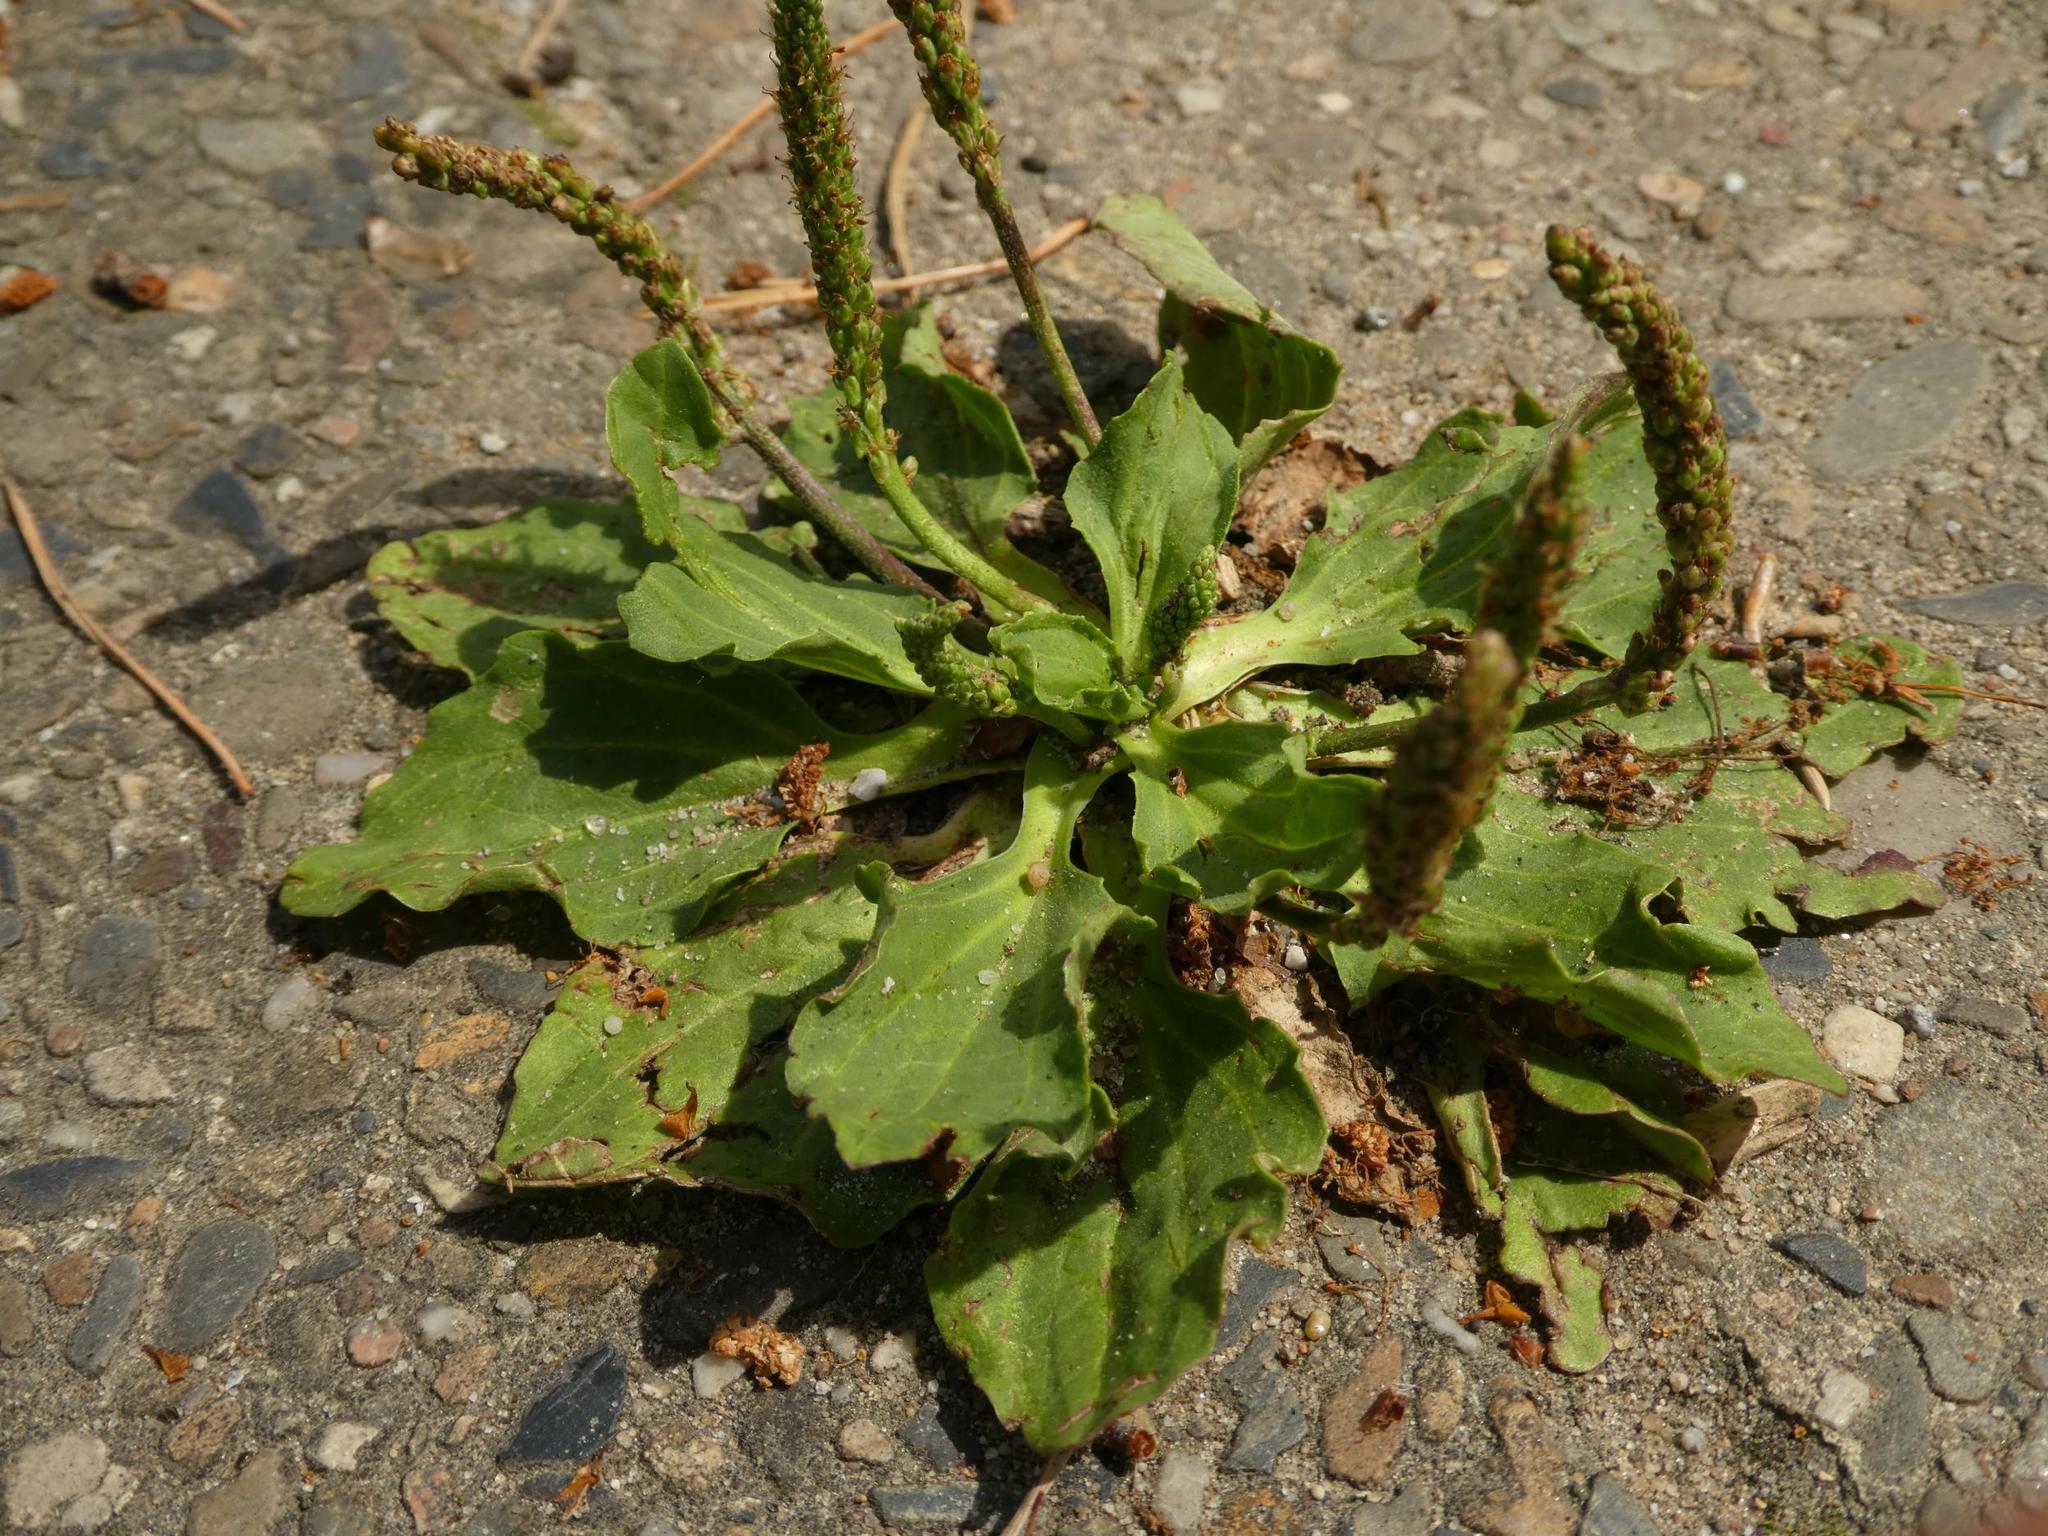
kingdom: Plantae
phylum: Tracheophyta
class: Magnoliopsida
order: Lamiales
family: Plantaginaceae
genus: Plantago
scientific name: Plantago major
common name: Common plantain
